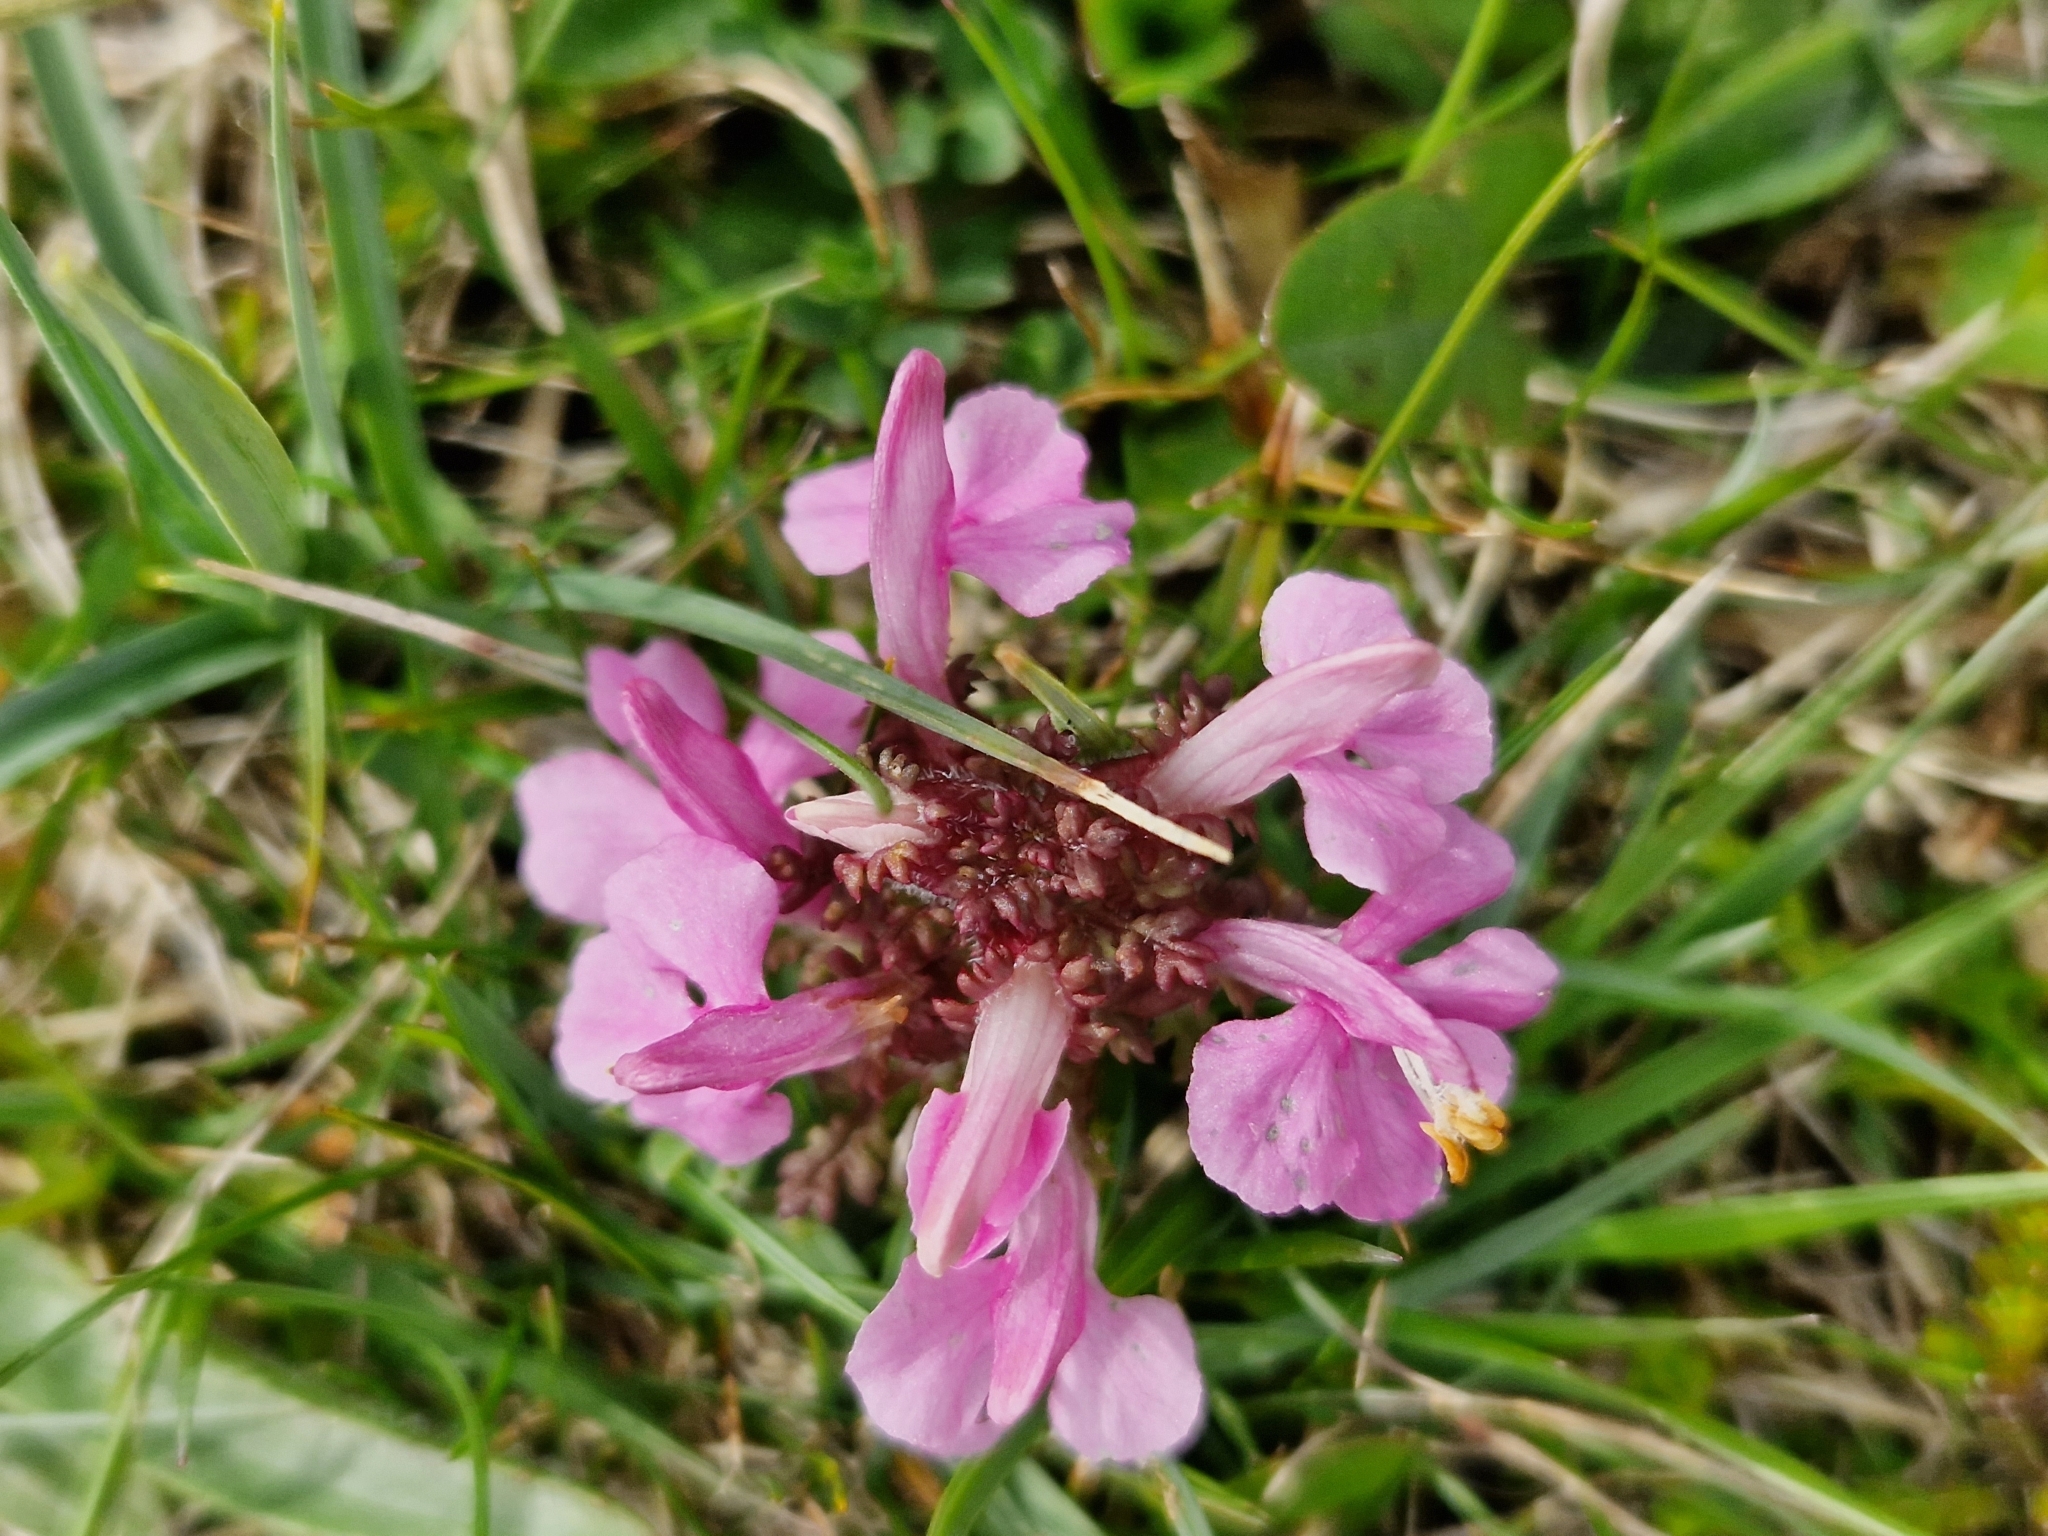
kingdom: Plantae
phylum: Tracheophyta
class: Magnoliopsida
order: Lamiales
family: Orobanchaceae
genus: Pedicularis
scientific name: Pedicularis sylvatica
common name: Lousewort
